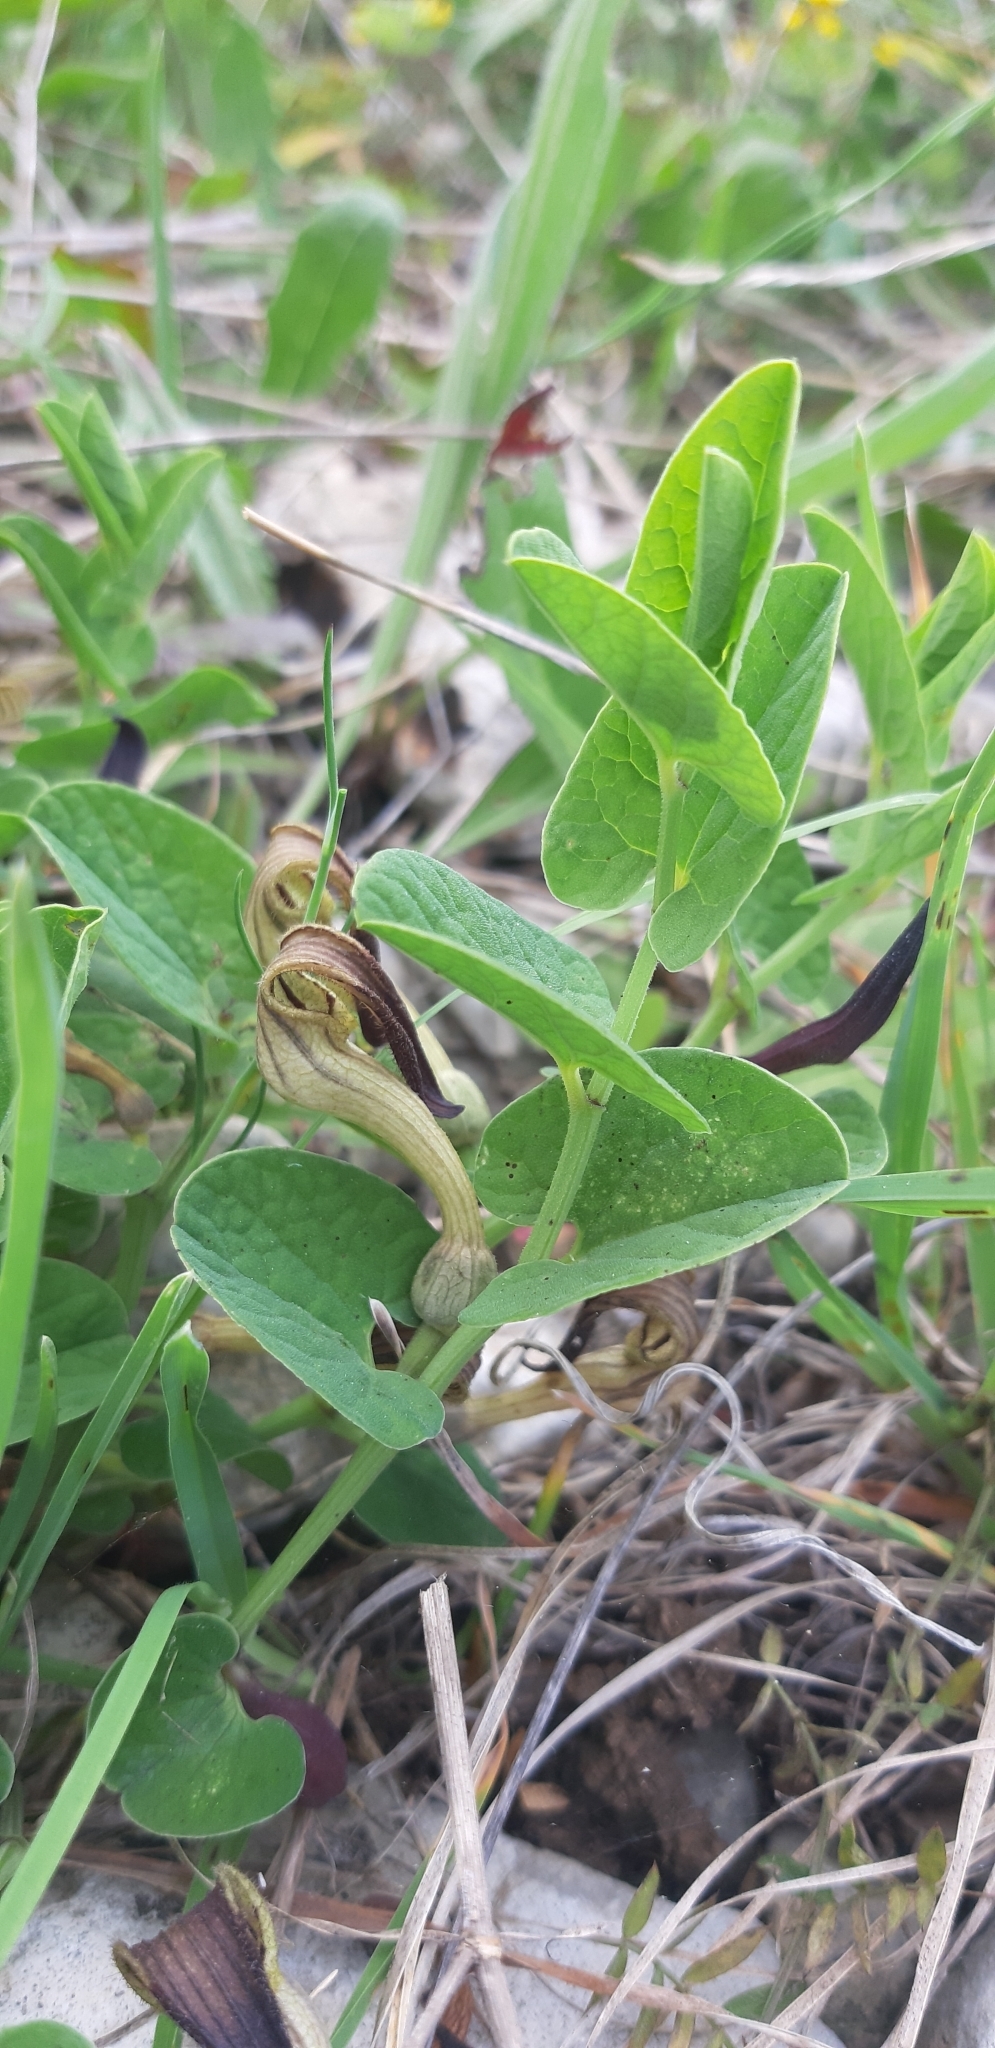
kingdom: Plantae
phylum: Tracheophyta
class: Magnoliopsida
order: Piperales
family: Aristolochiaceae
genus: Aristolochia
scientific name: Aristolochia clusii
